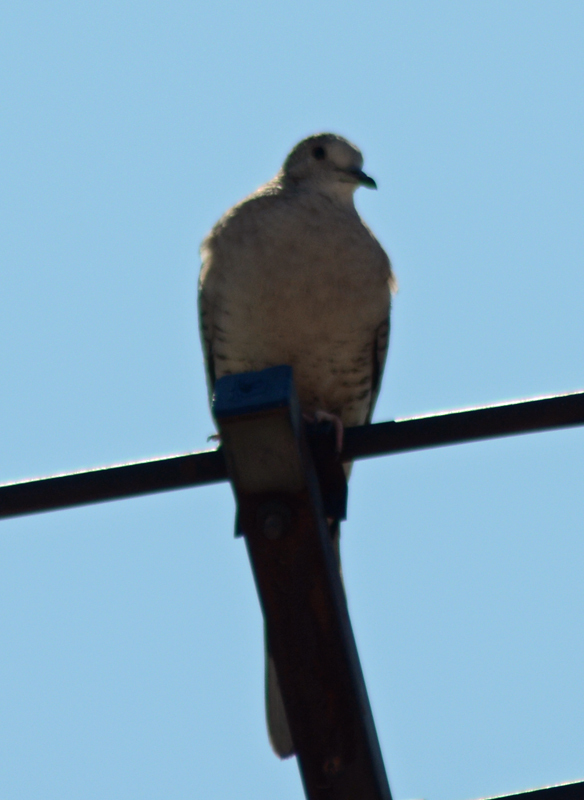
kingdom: Animalia
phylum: Chordata
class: Aves
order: Columbiformes
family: Columbidae
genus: Columbina
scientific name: Columbina inca
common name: Inca dove
